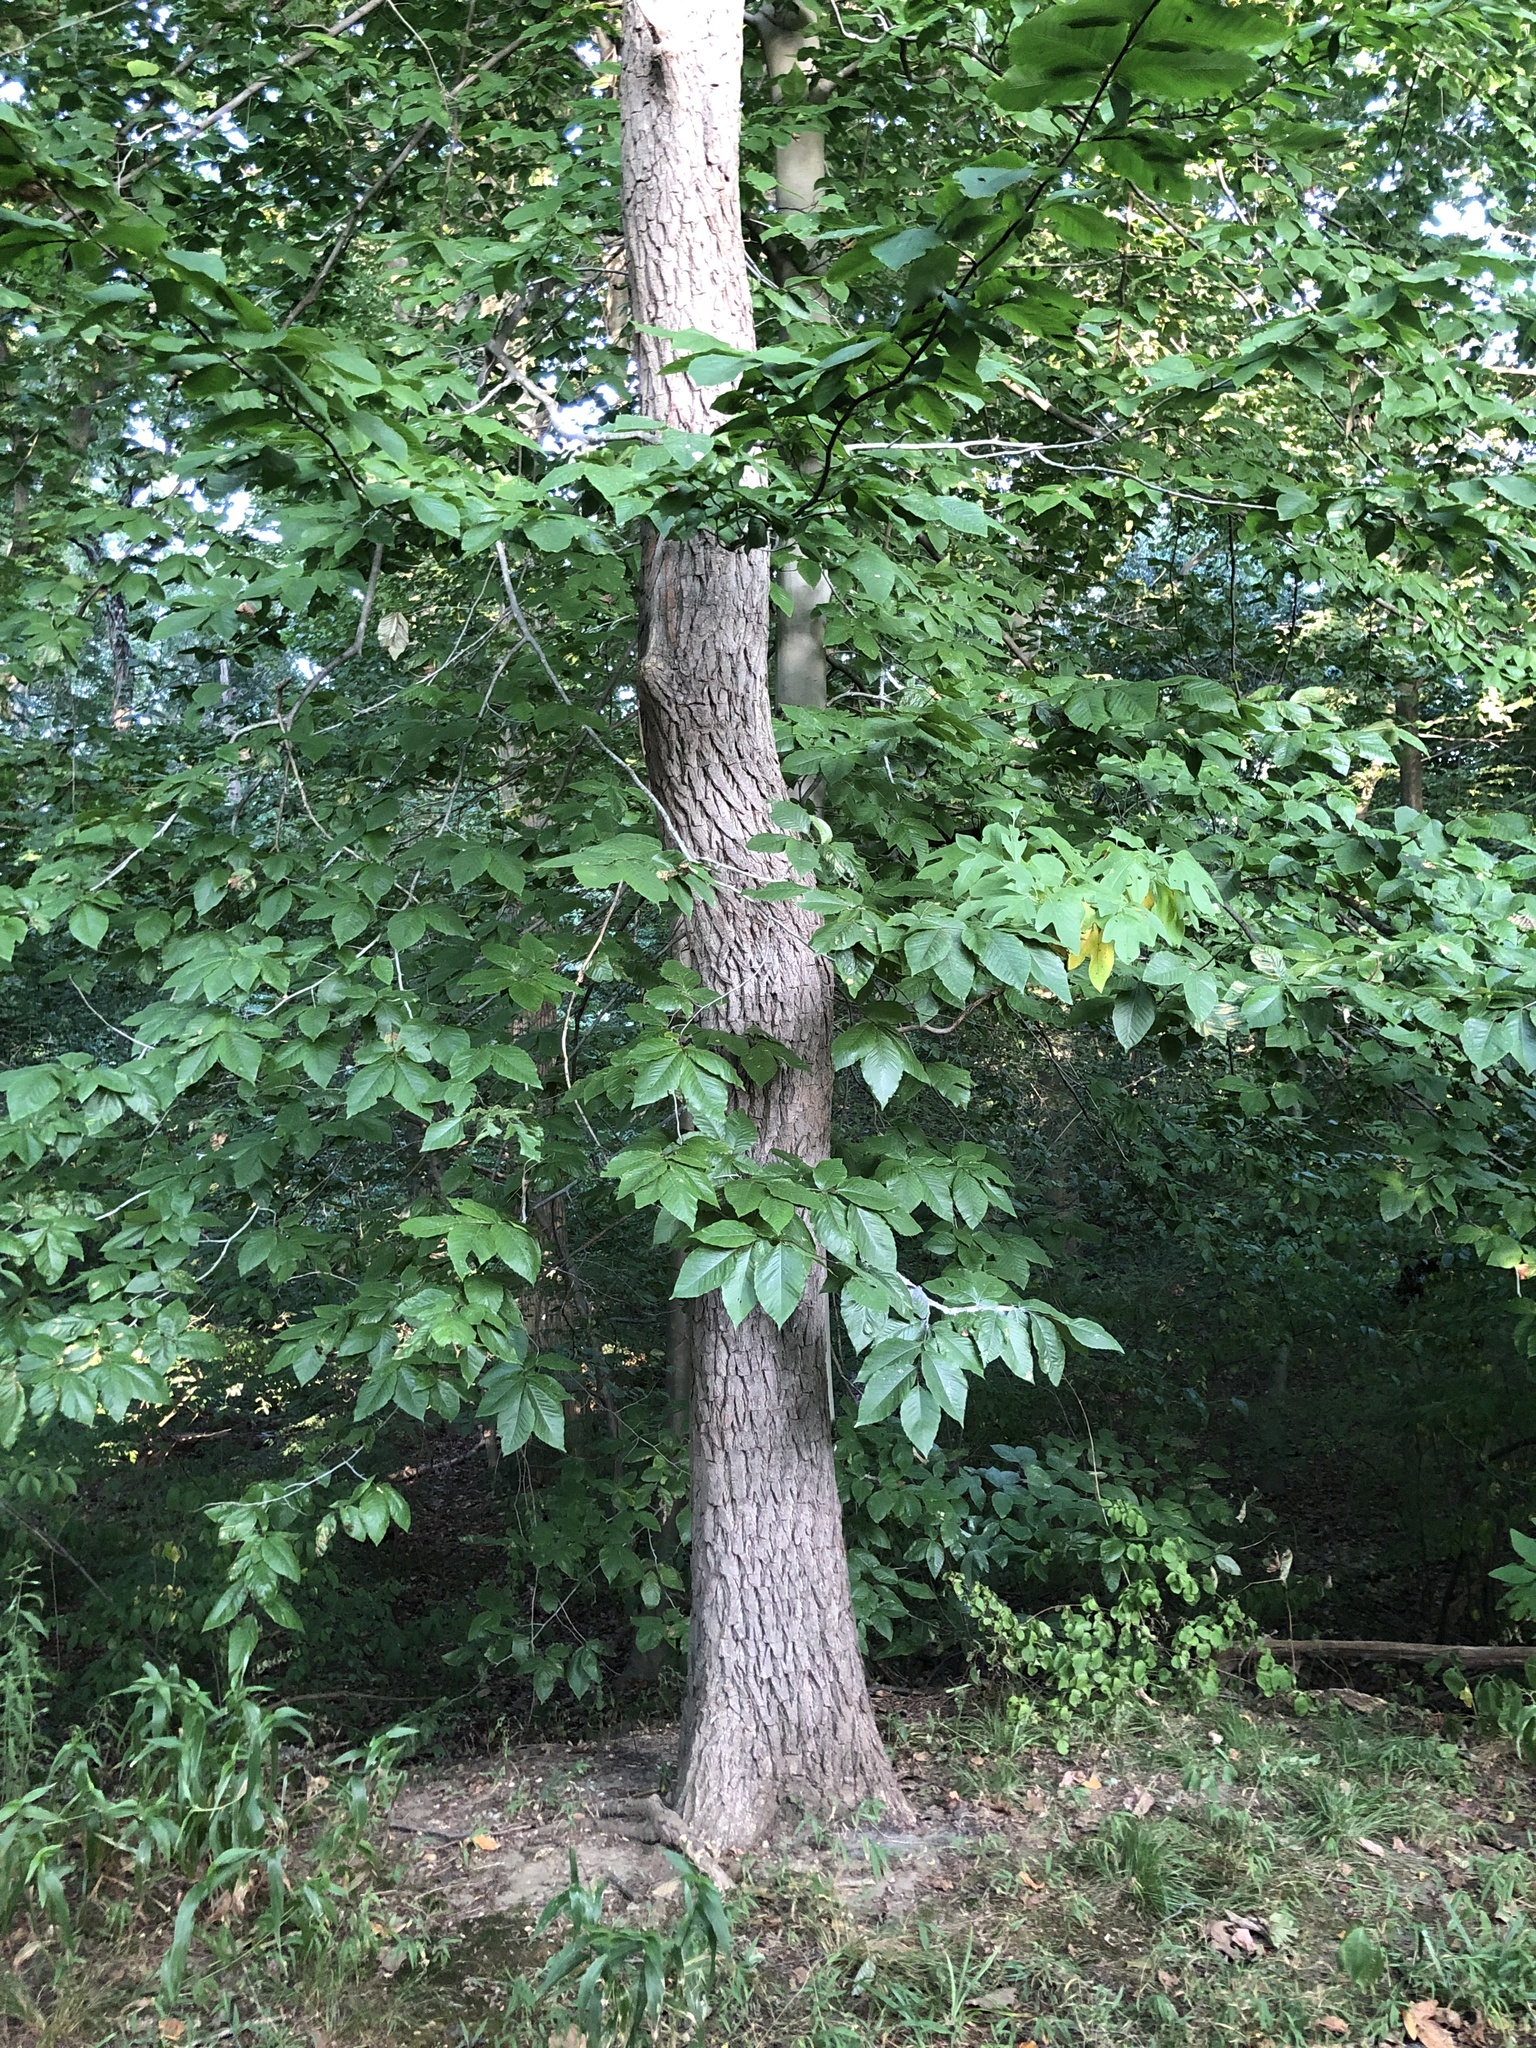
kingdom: Plantae
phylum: Tracheophyta
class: Magnoliopsida
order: Fagales
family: Fagaceae
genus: Fagus
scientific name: Fagus grandifolia
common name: American beech
